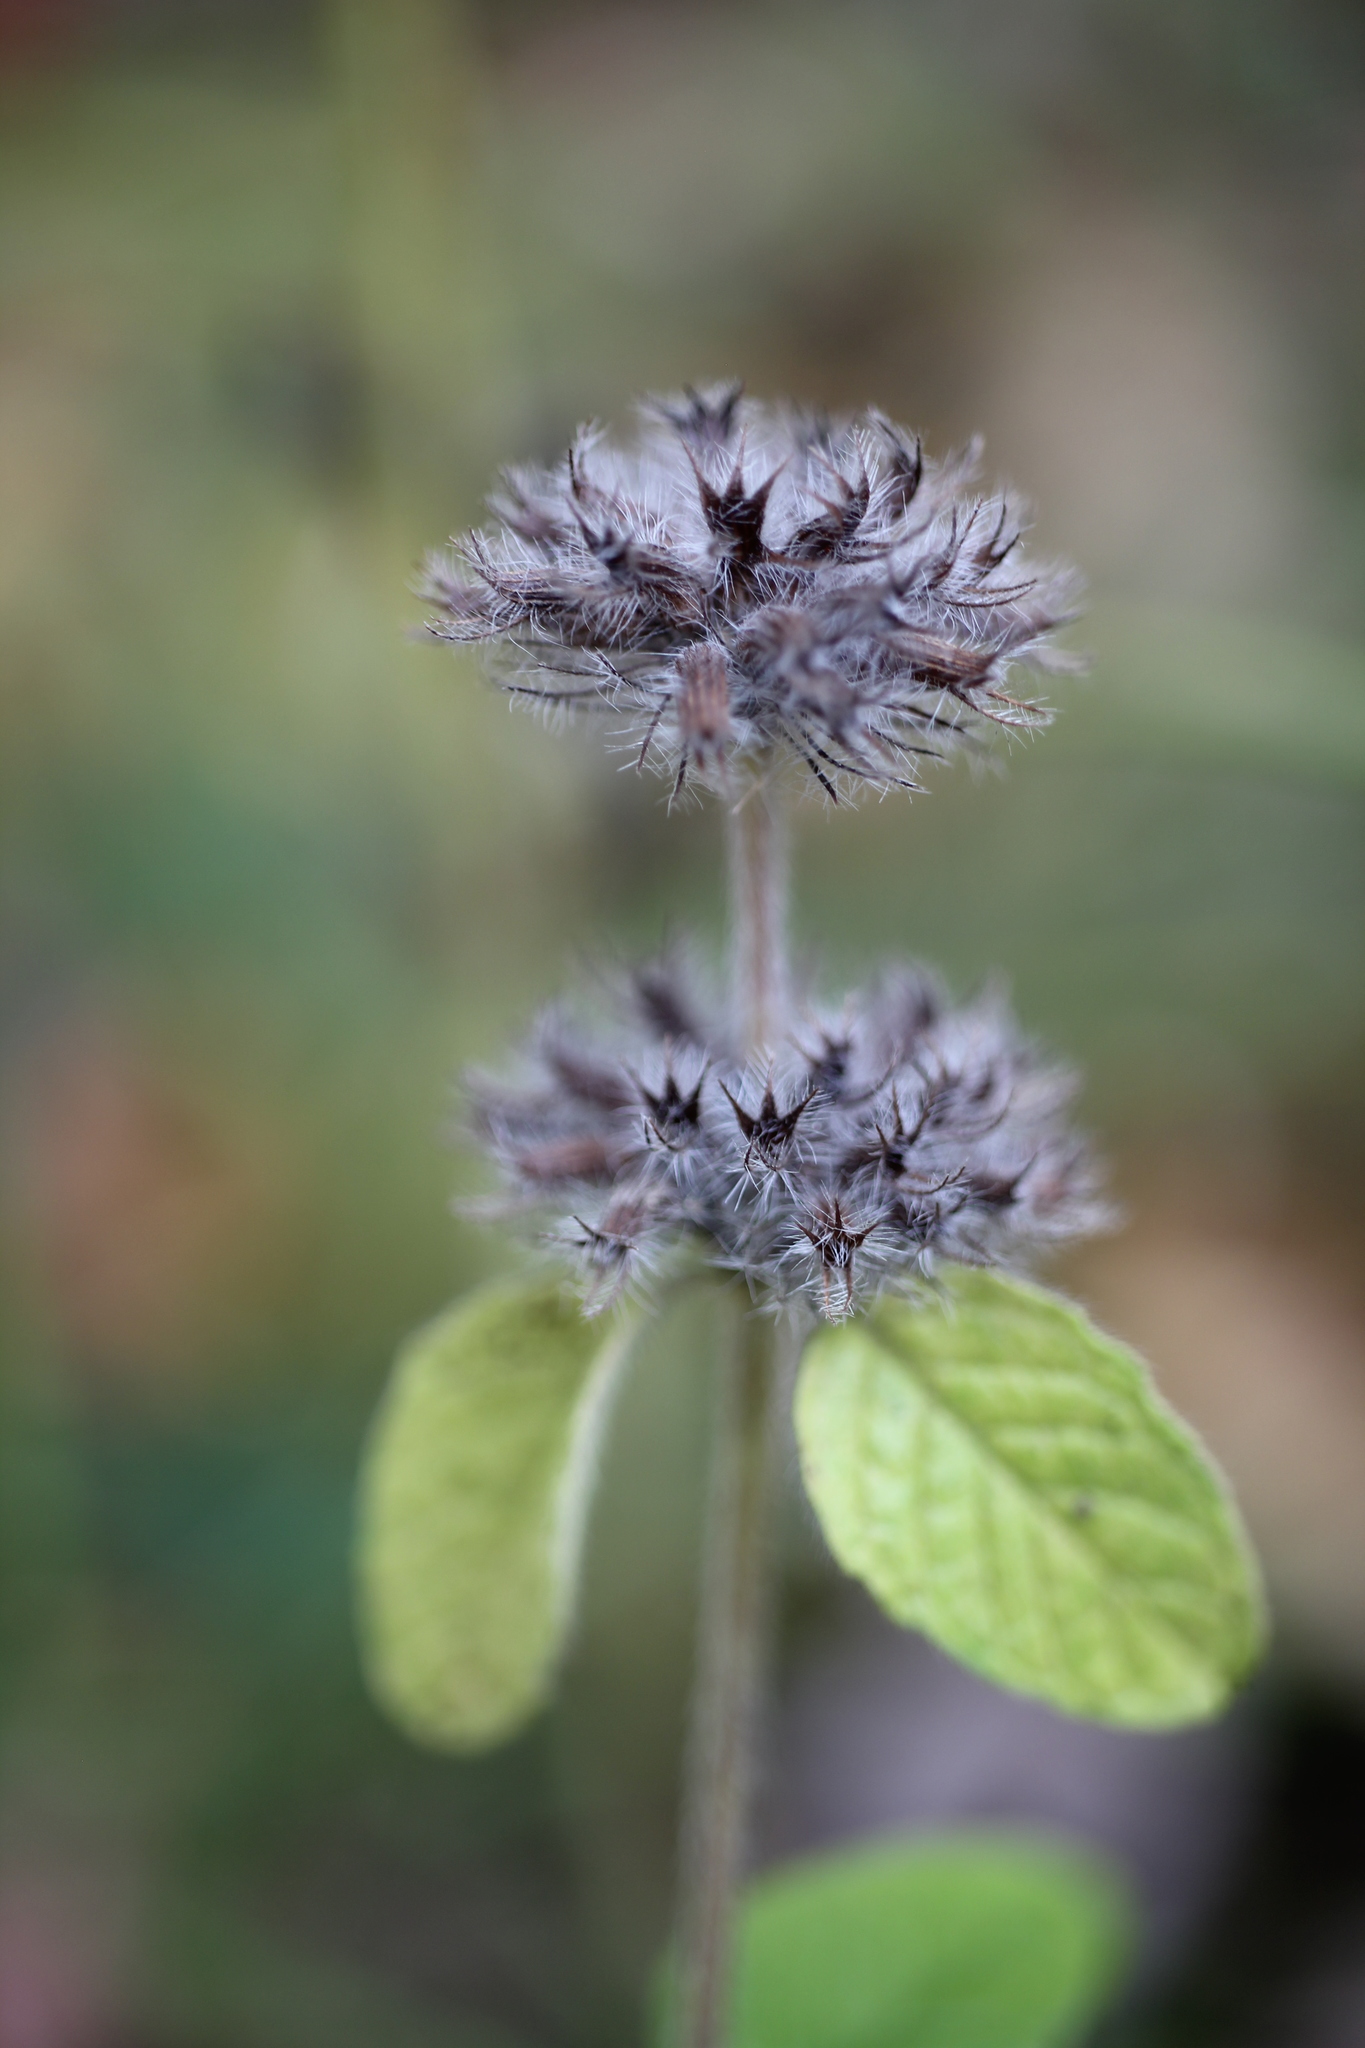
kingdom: Plantae
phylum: Tracheophyta
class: Magnoliopsida
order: Lamiales
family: Lamiaceae
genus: Clinopodium
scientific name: Clinopodium vulgare
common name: Wild basil
